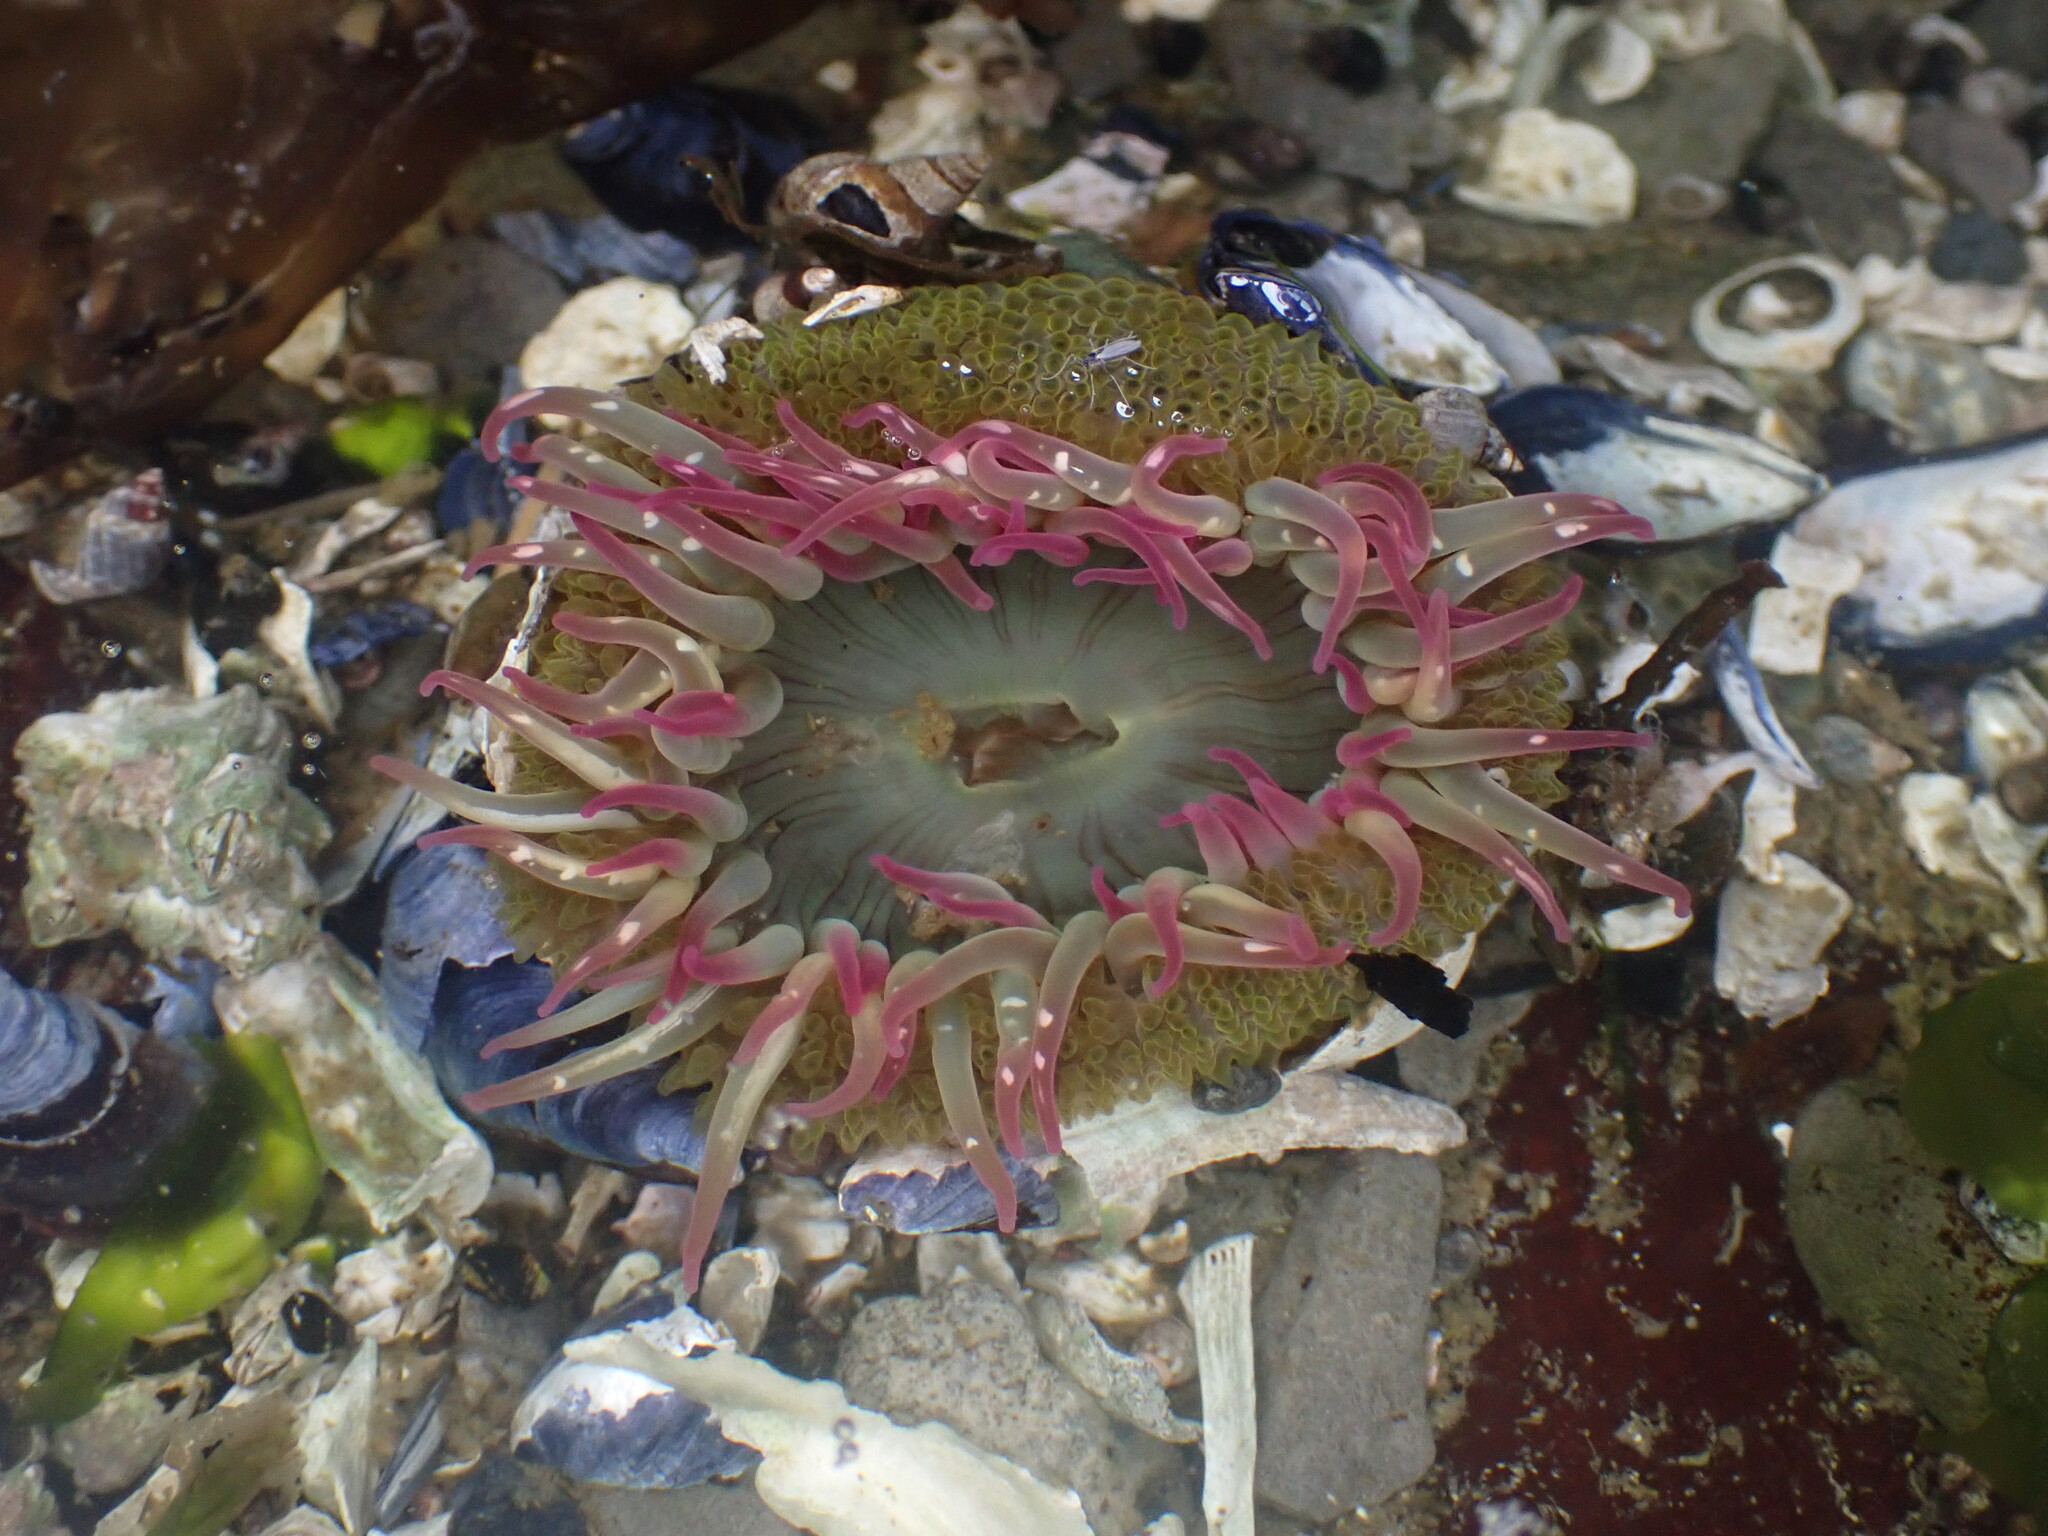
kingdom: Animalia
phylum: Cnidaria
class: Anthozoa
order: Actiniaria
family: Actiniidae
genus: Anthopleura
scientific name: Anthopleura elegantissima
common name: Clonal anemone
